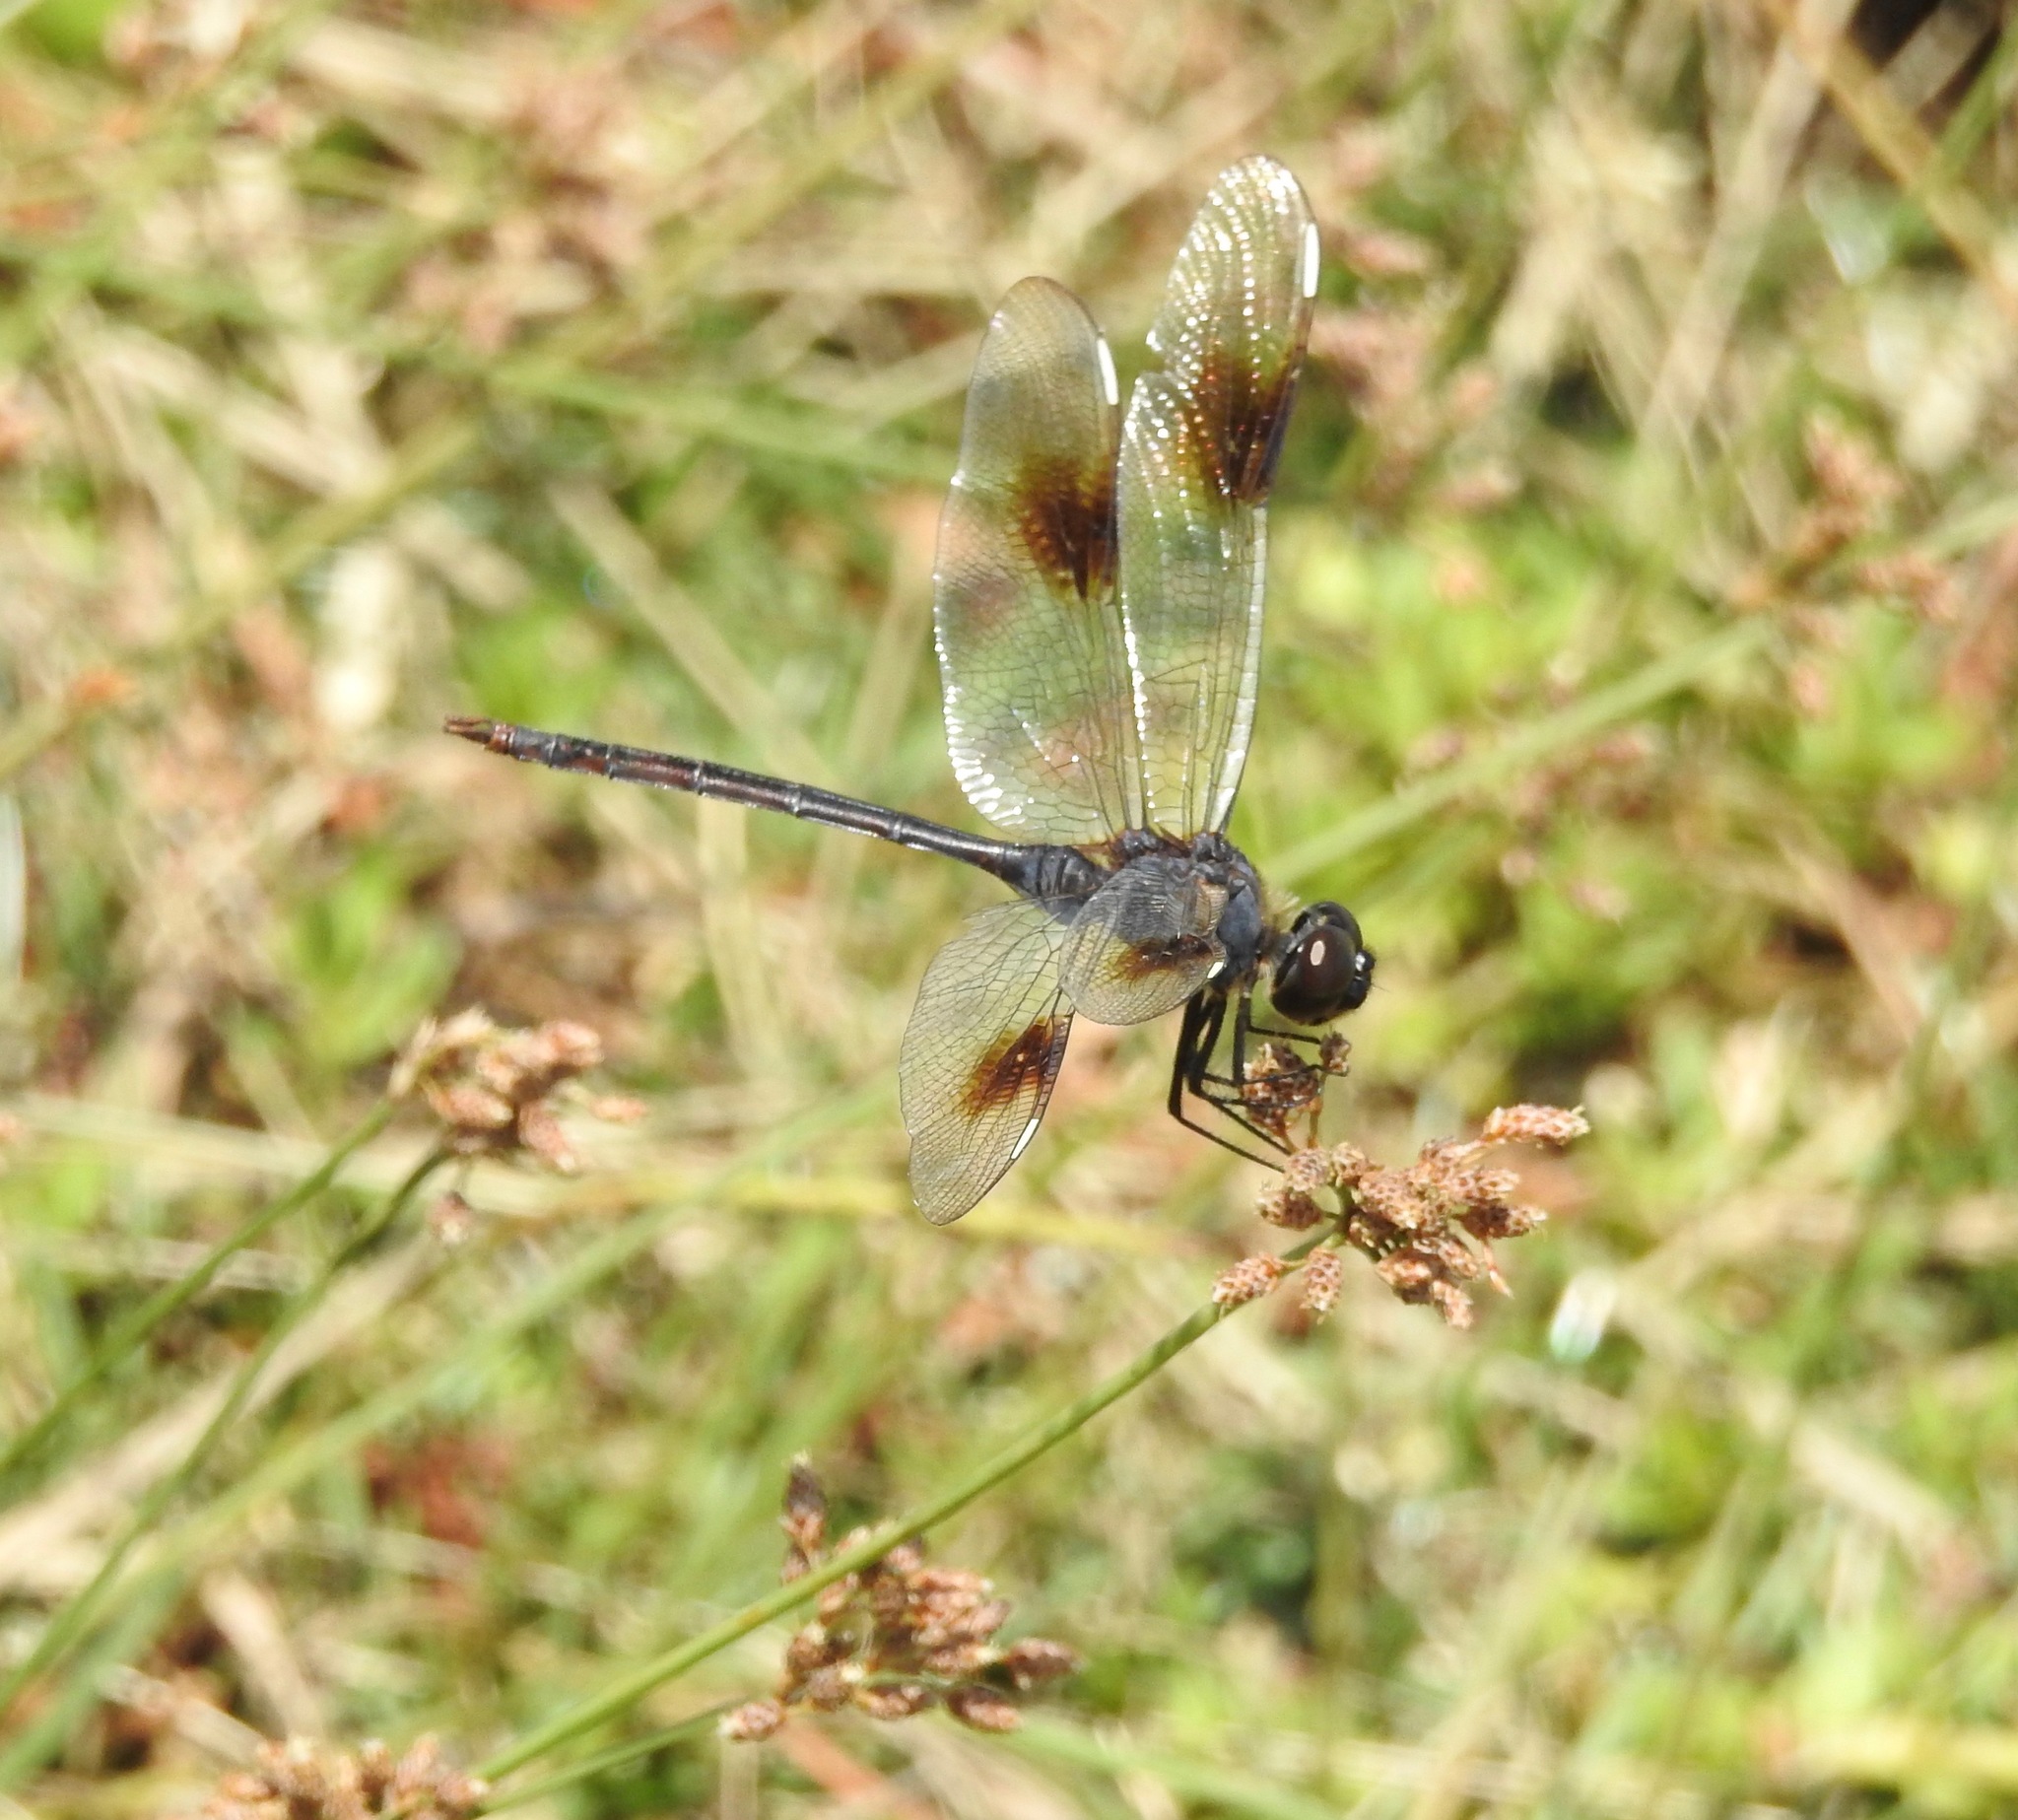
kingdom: Animalia
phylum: Arthropoda
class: Insecta
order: Odonata
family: Libellulidae
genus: Brachymesia
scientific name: Brachymesia gravida
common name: Four-spotted pennant
